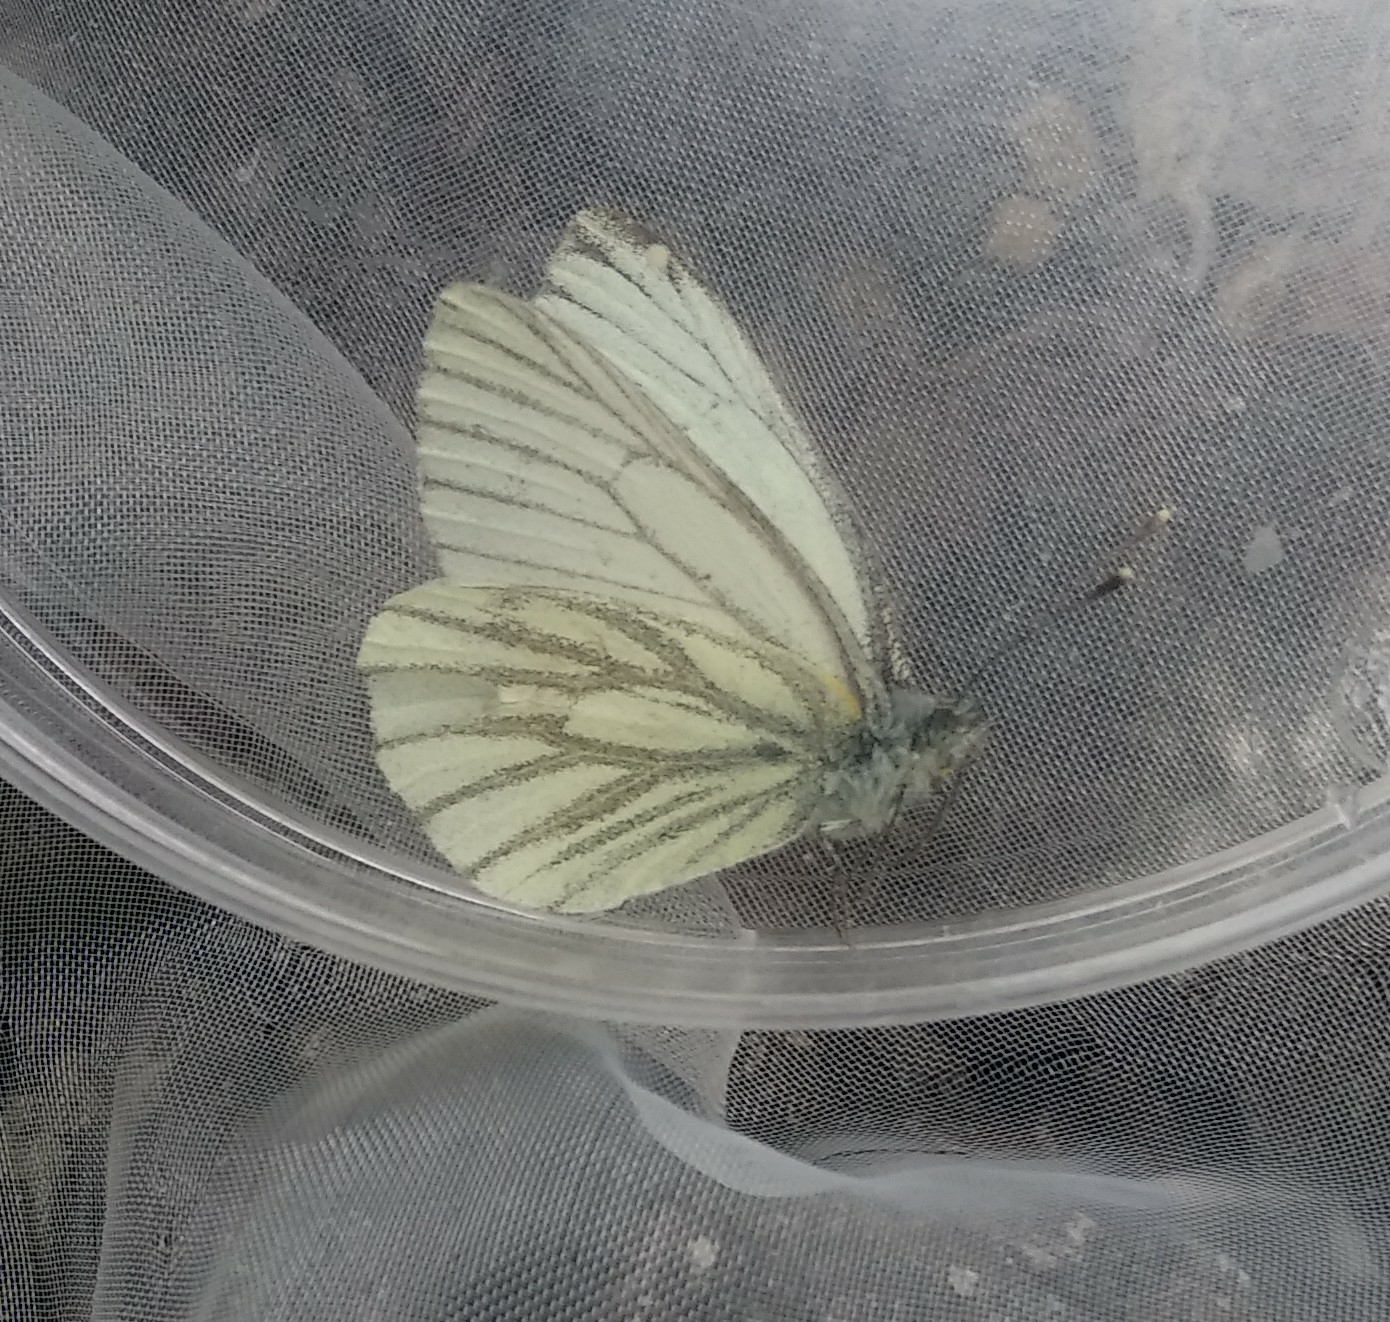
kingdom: Animalia
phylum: Arthropoda
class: Insecta
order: Lepidoptera
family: Pieridae
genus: Pieris
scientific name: Pieris napi
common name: Green-veined white
